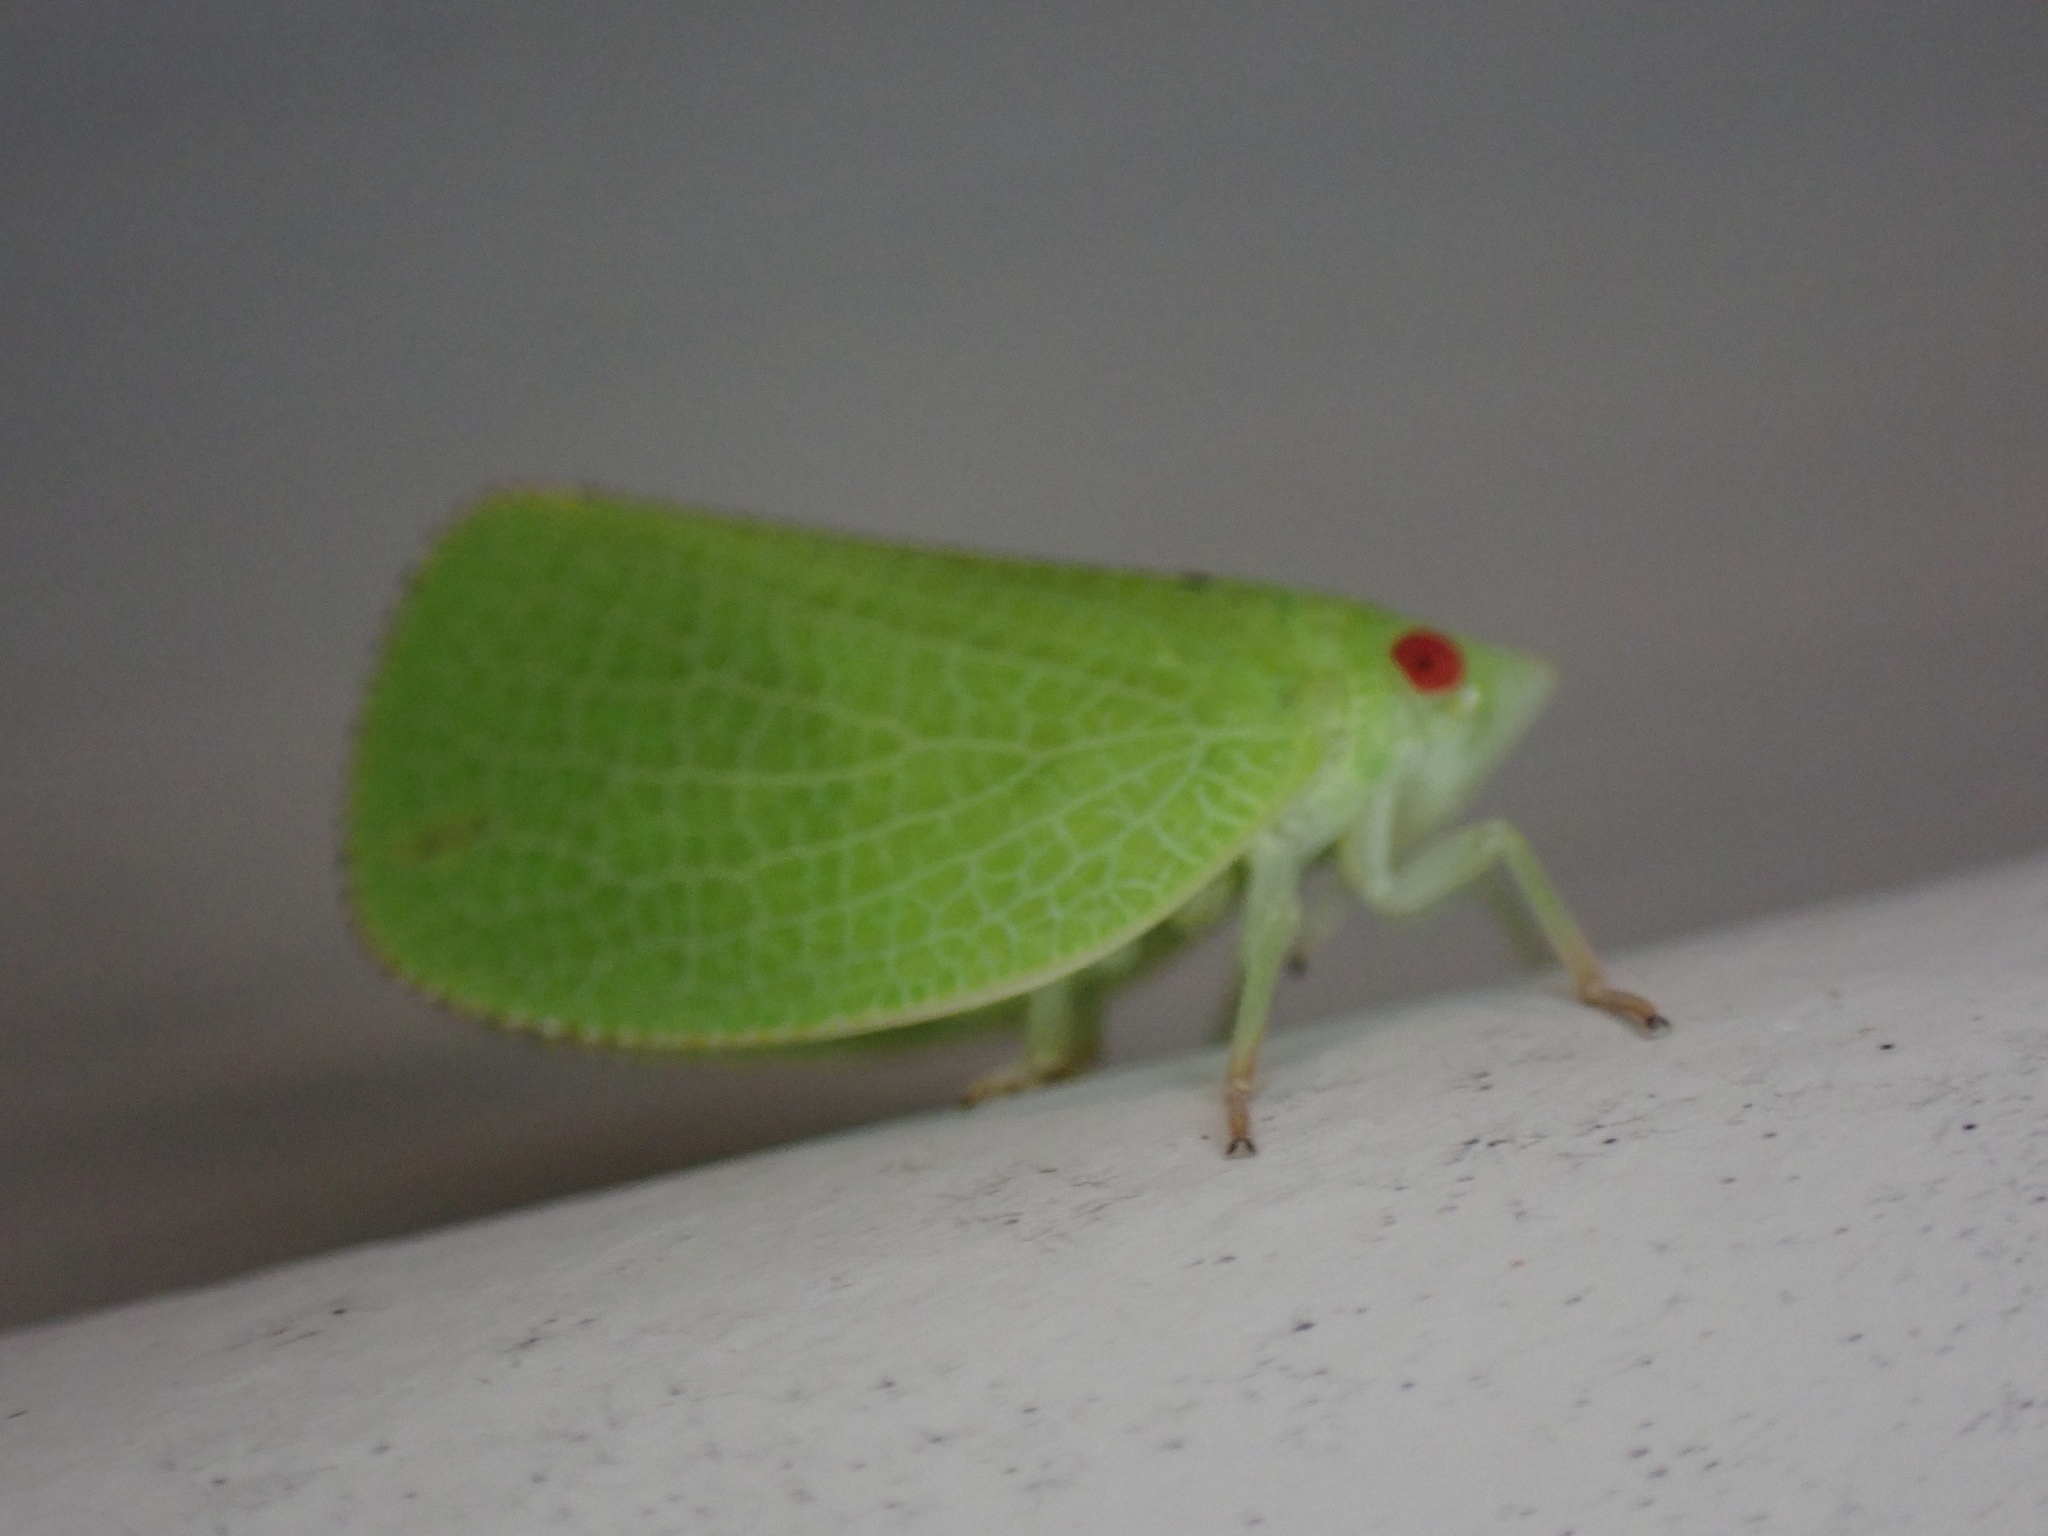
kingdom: Animalia
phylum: Arthropoda
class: Insecta
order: Hemiptera
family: Acanaloniidae
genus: Acanalonia
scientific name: Acanalonia conica
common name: Green cone-headed planthopper
